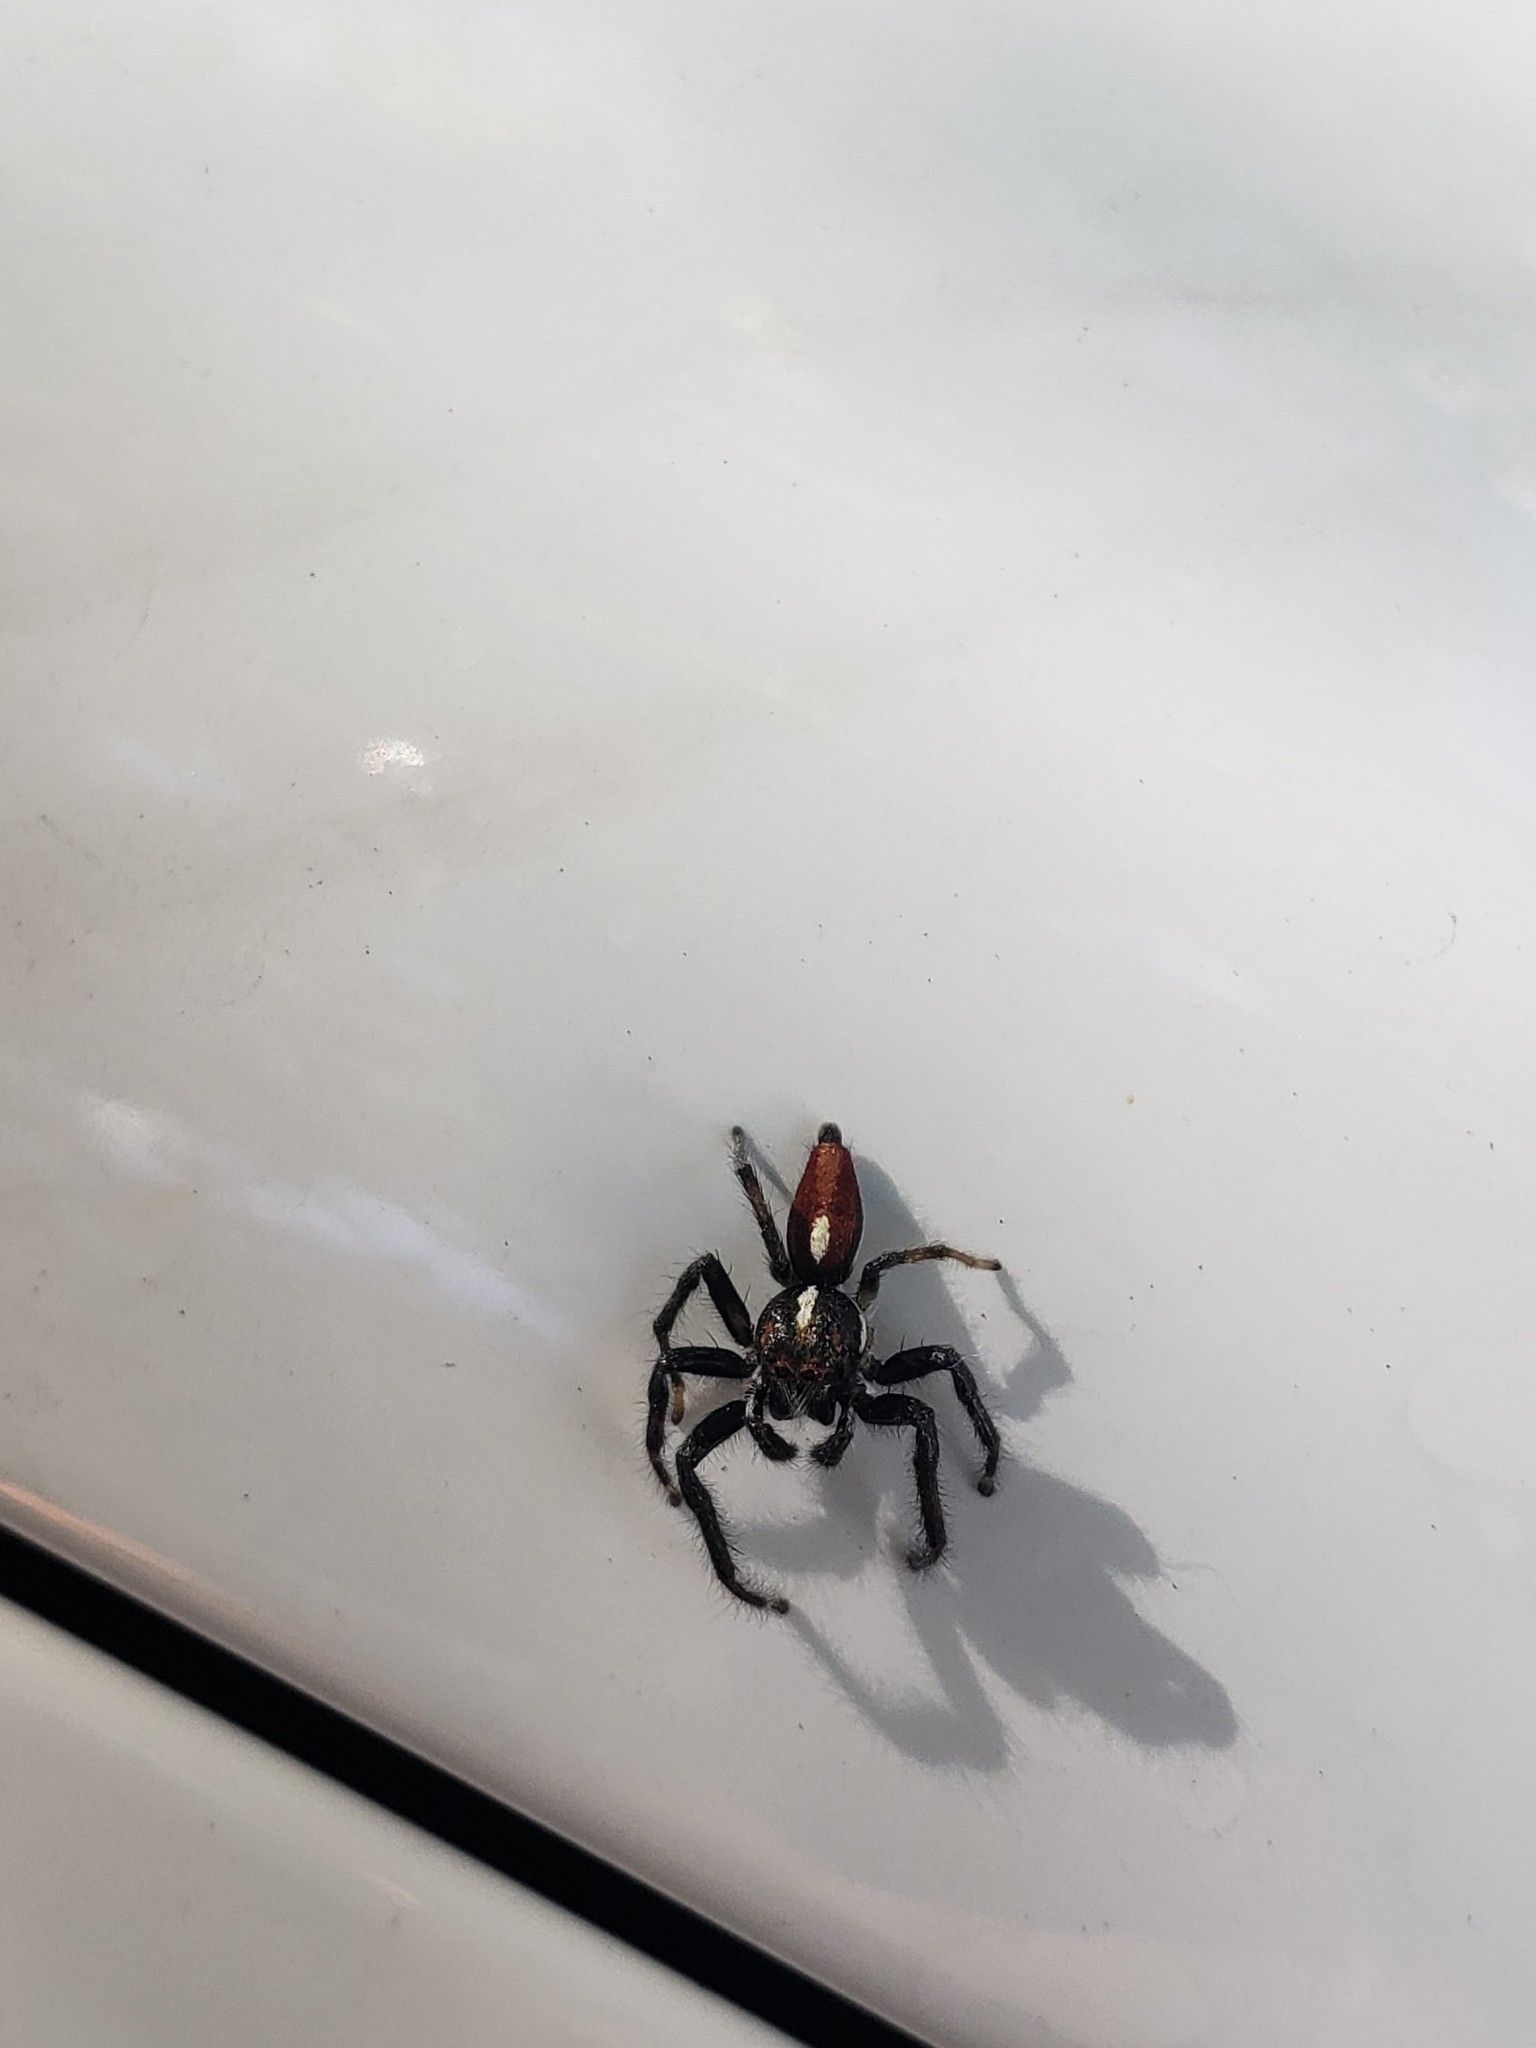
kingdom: Animalia
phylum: Arthropoda
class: Arachnida
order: Araneae
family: Salticidae
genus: Frigga
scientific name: Frigga quintensis
